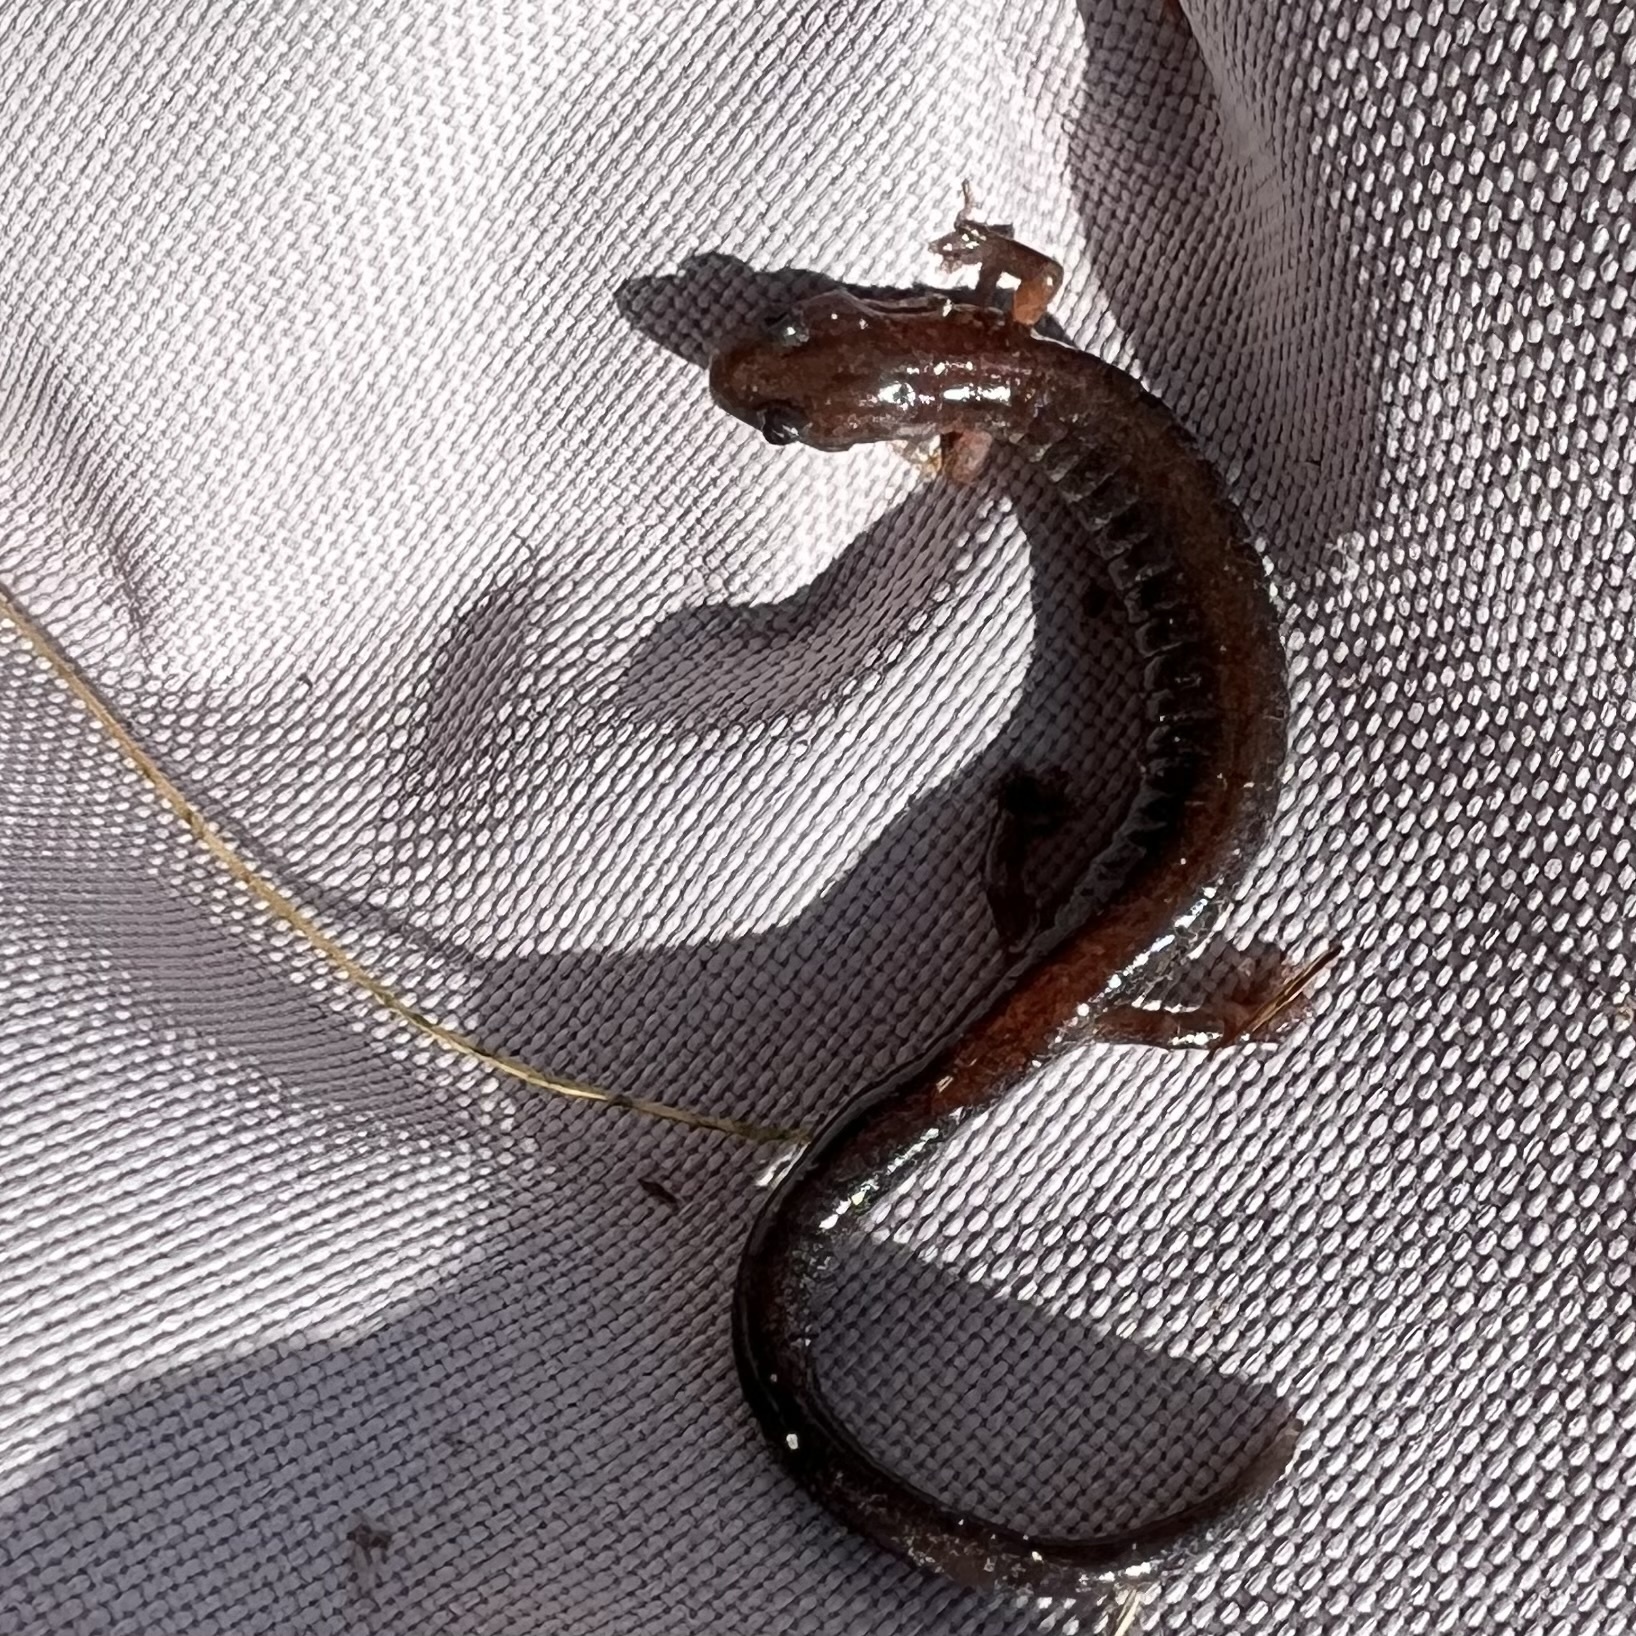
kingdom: Animalia
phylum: Chordata
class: Amphibia
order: Caudata
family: Plethodontidae
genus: Plethodon
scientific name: Plethodon cinereus
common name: Redback salamander
